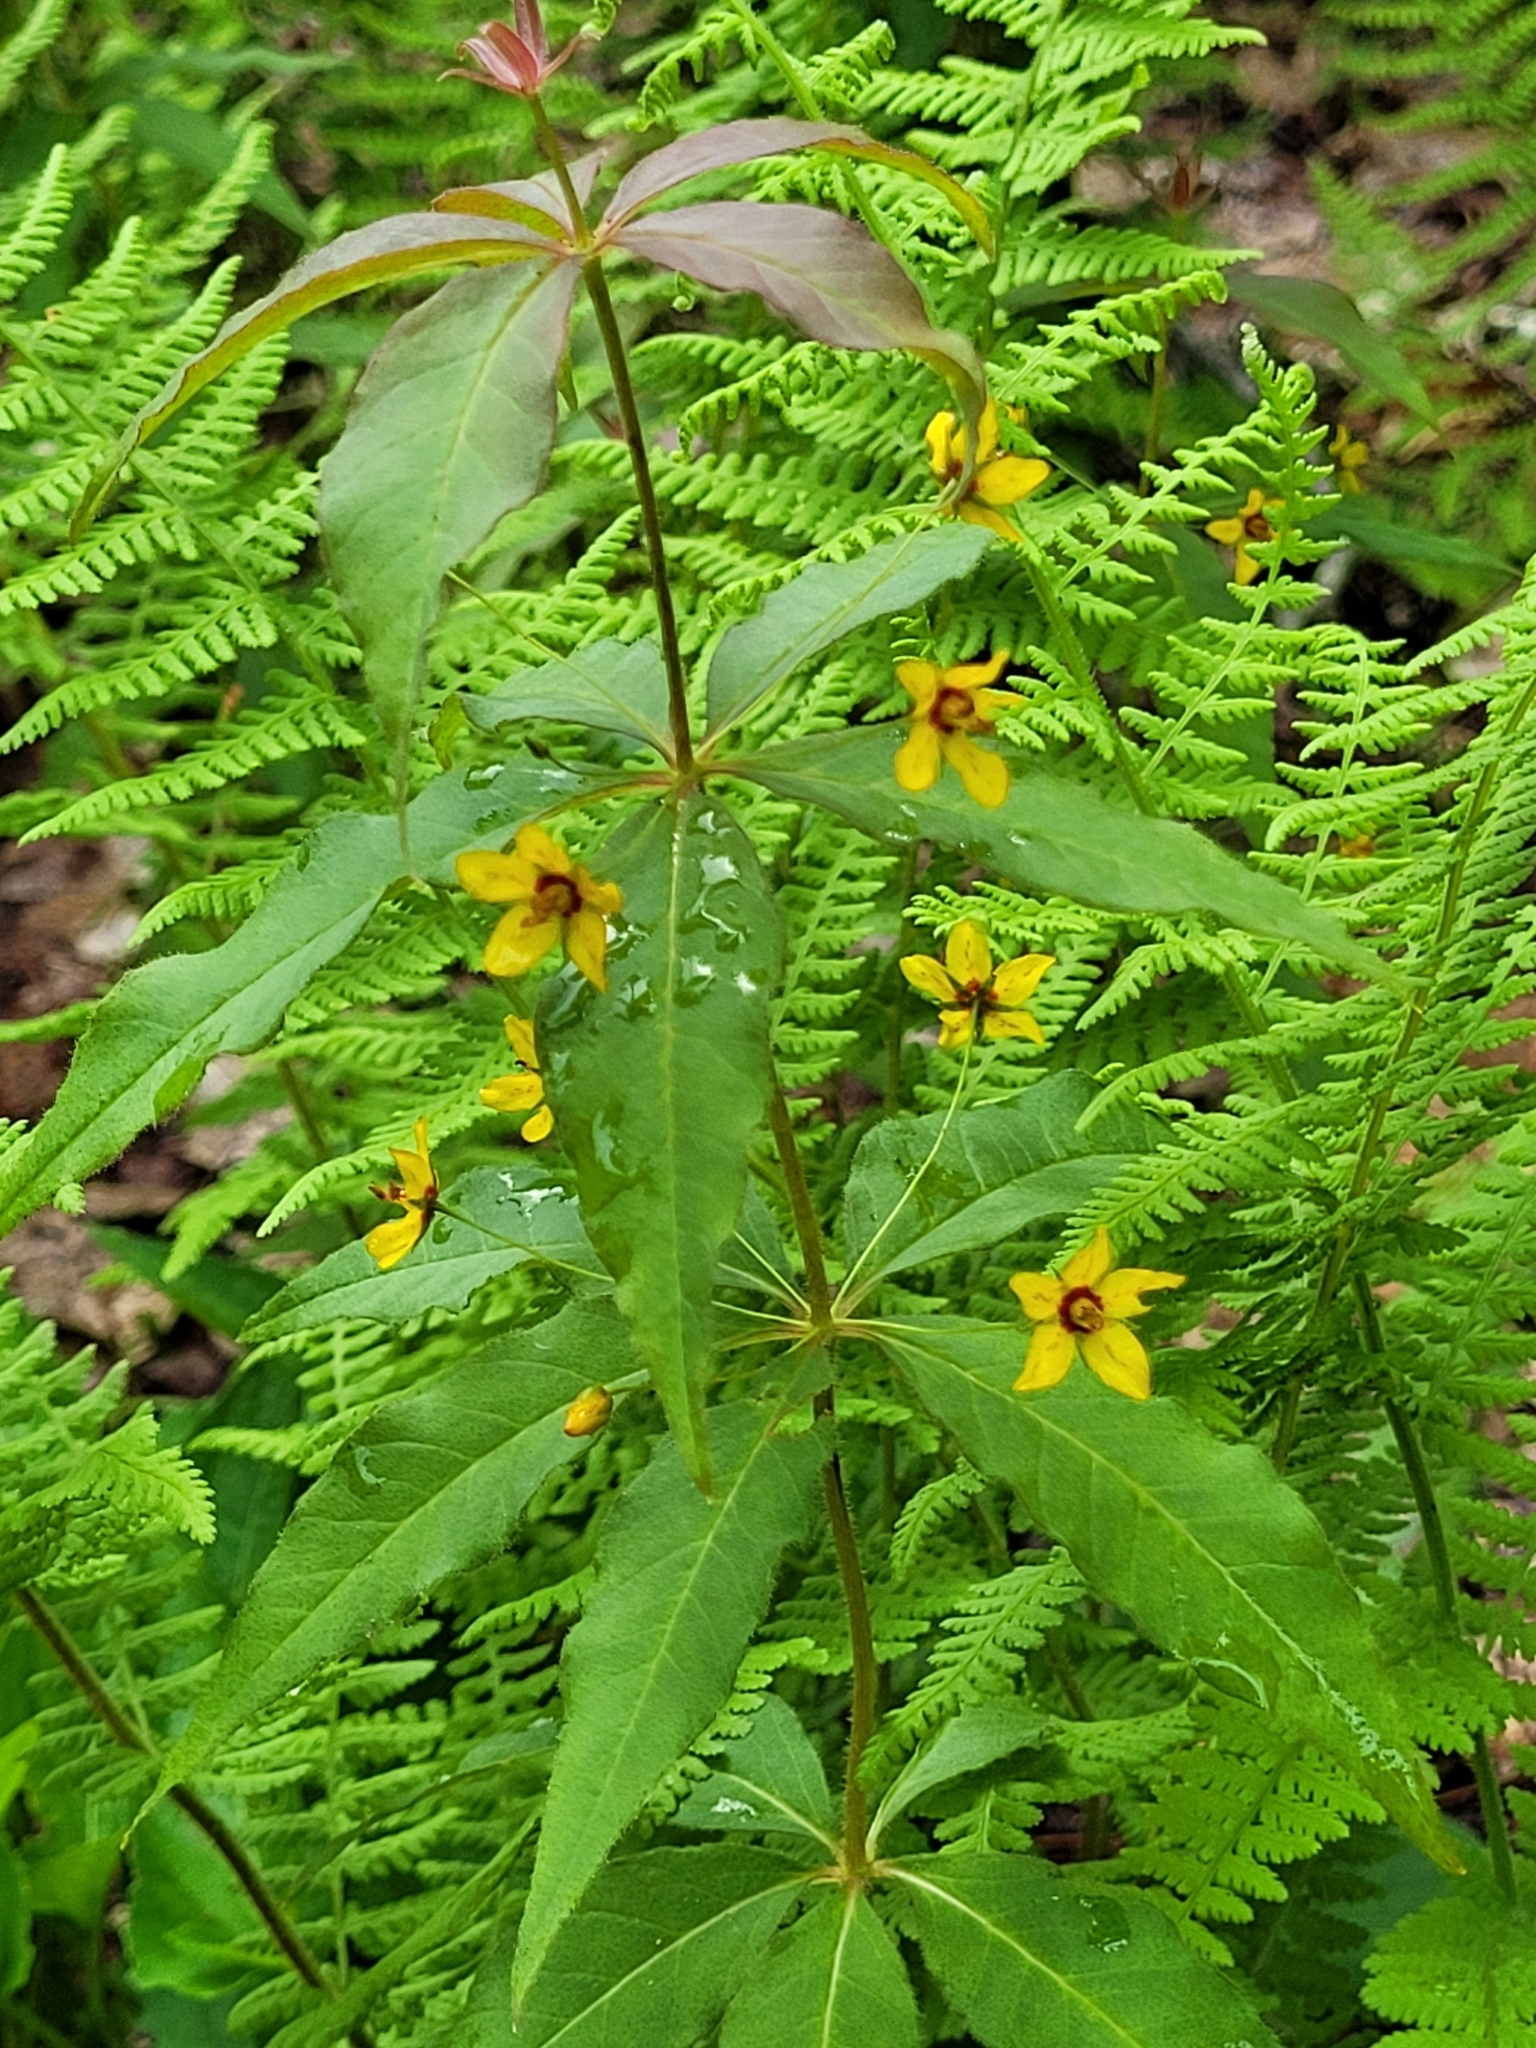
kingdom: Plantae
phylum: Tracheophyta
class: Magnoliopsida
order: Ericales
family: Primulaceae
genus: Lysimachia
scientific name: Lysimachia quadrifolia
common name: Whorled loosestrife
